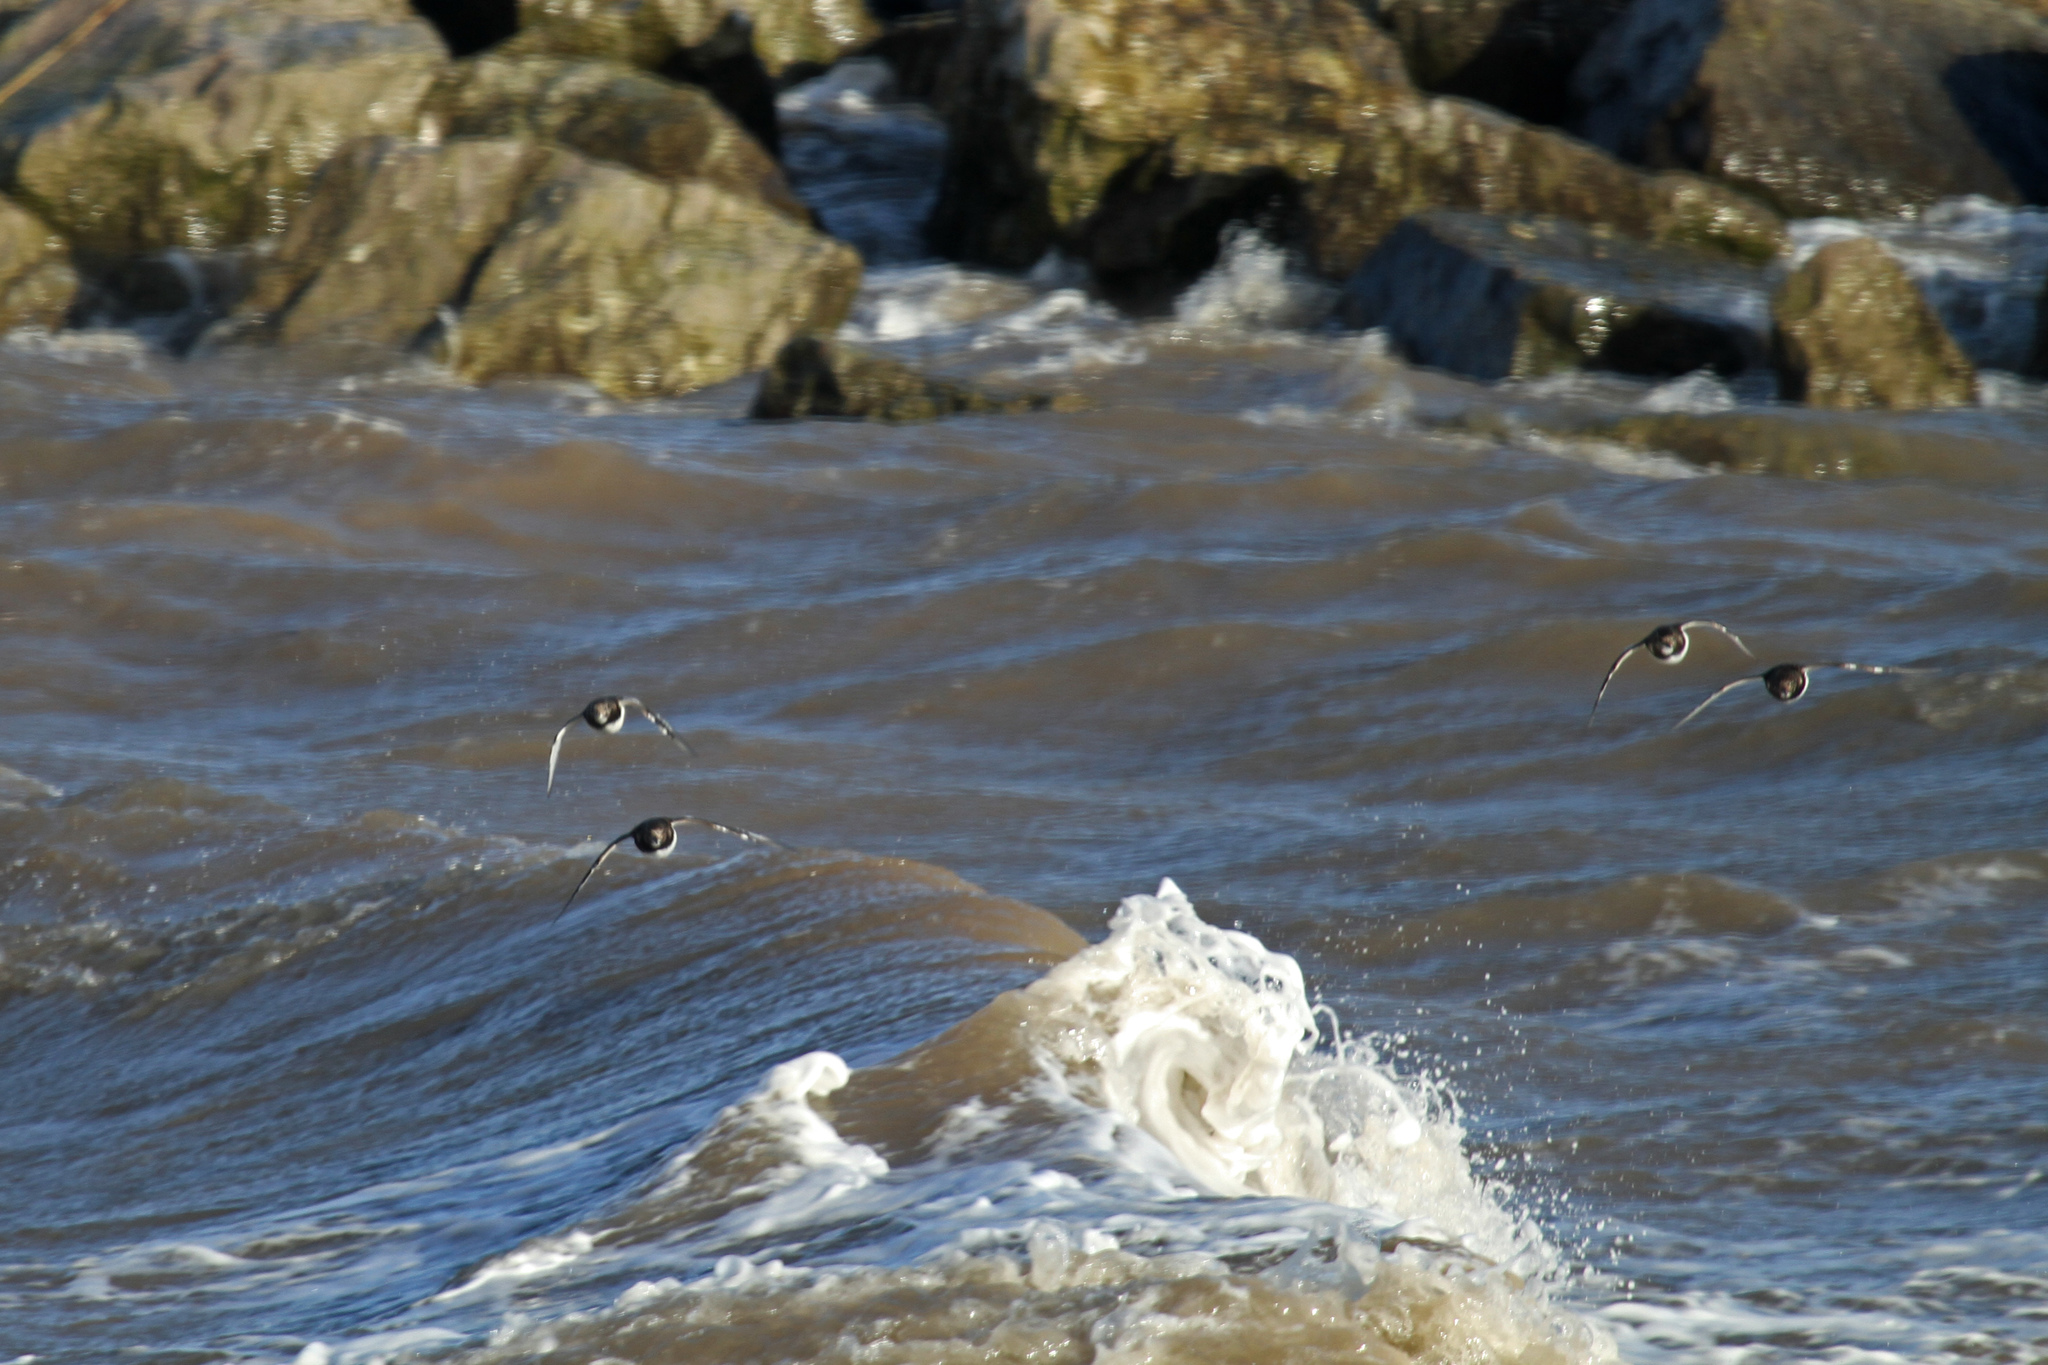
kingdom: Animalia
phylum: Chordata
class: Aves
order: Charadriiformes
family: Scolopacidae
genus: Arenaria
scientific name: Arenaria interpres
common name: Ruddy turnstone
